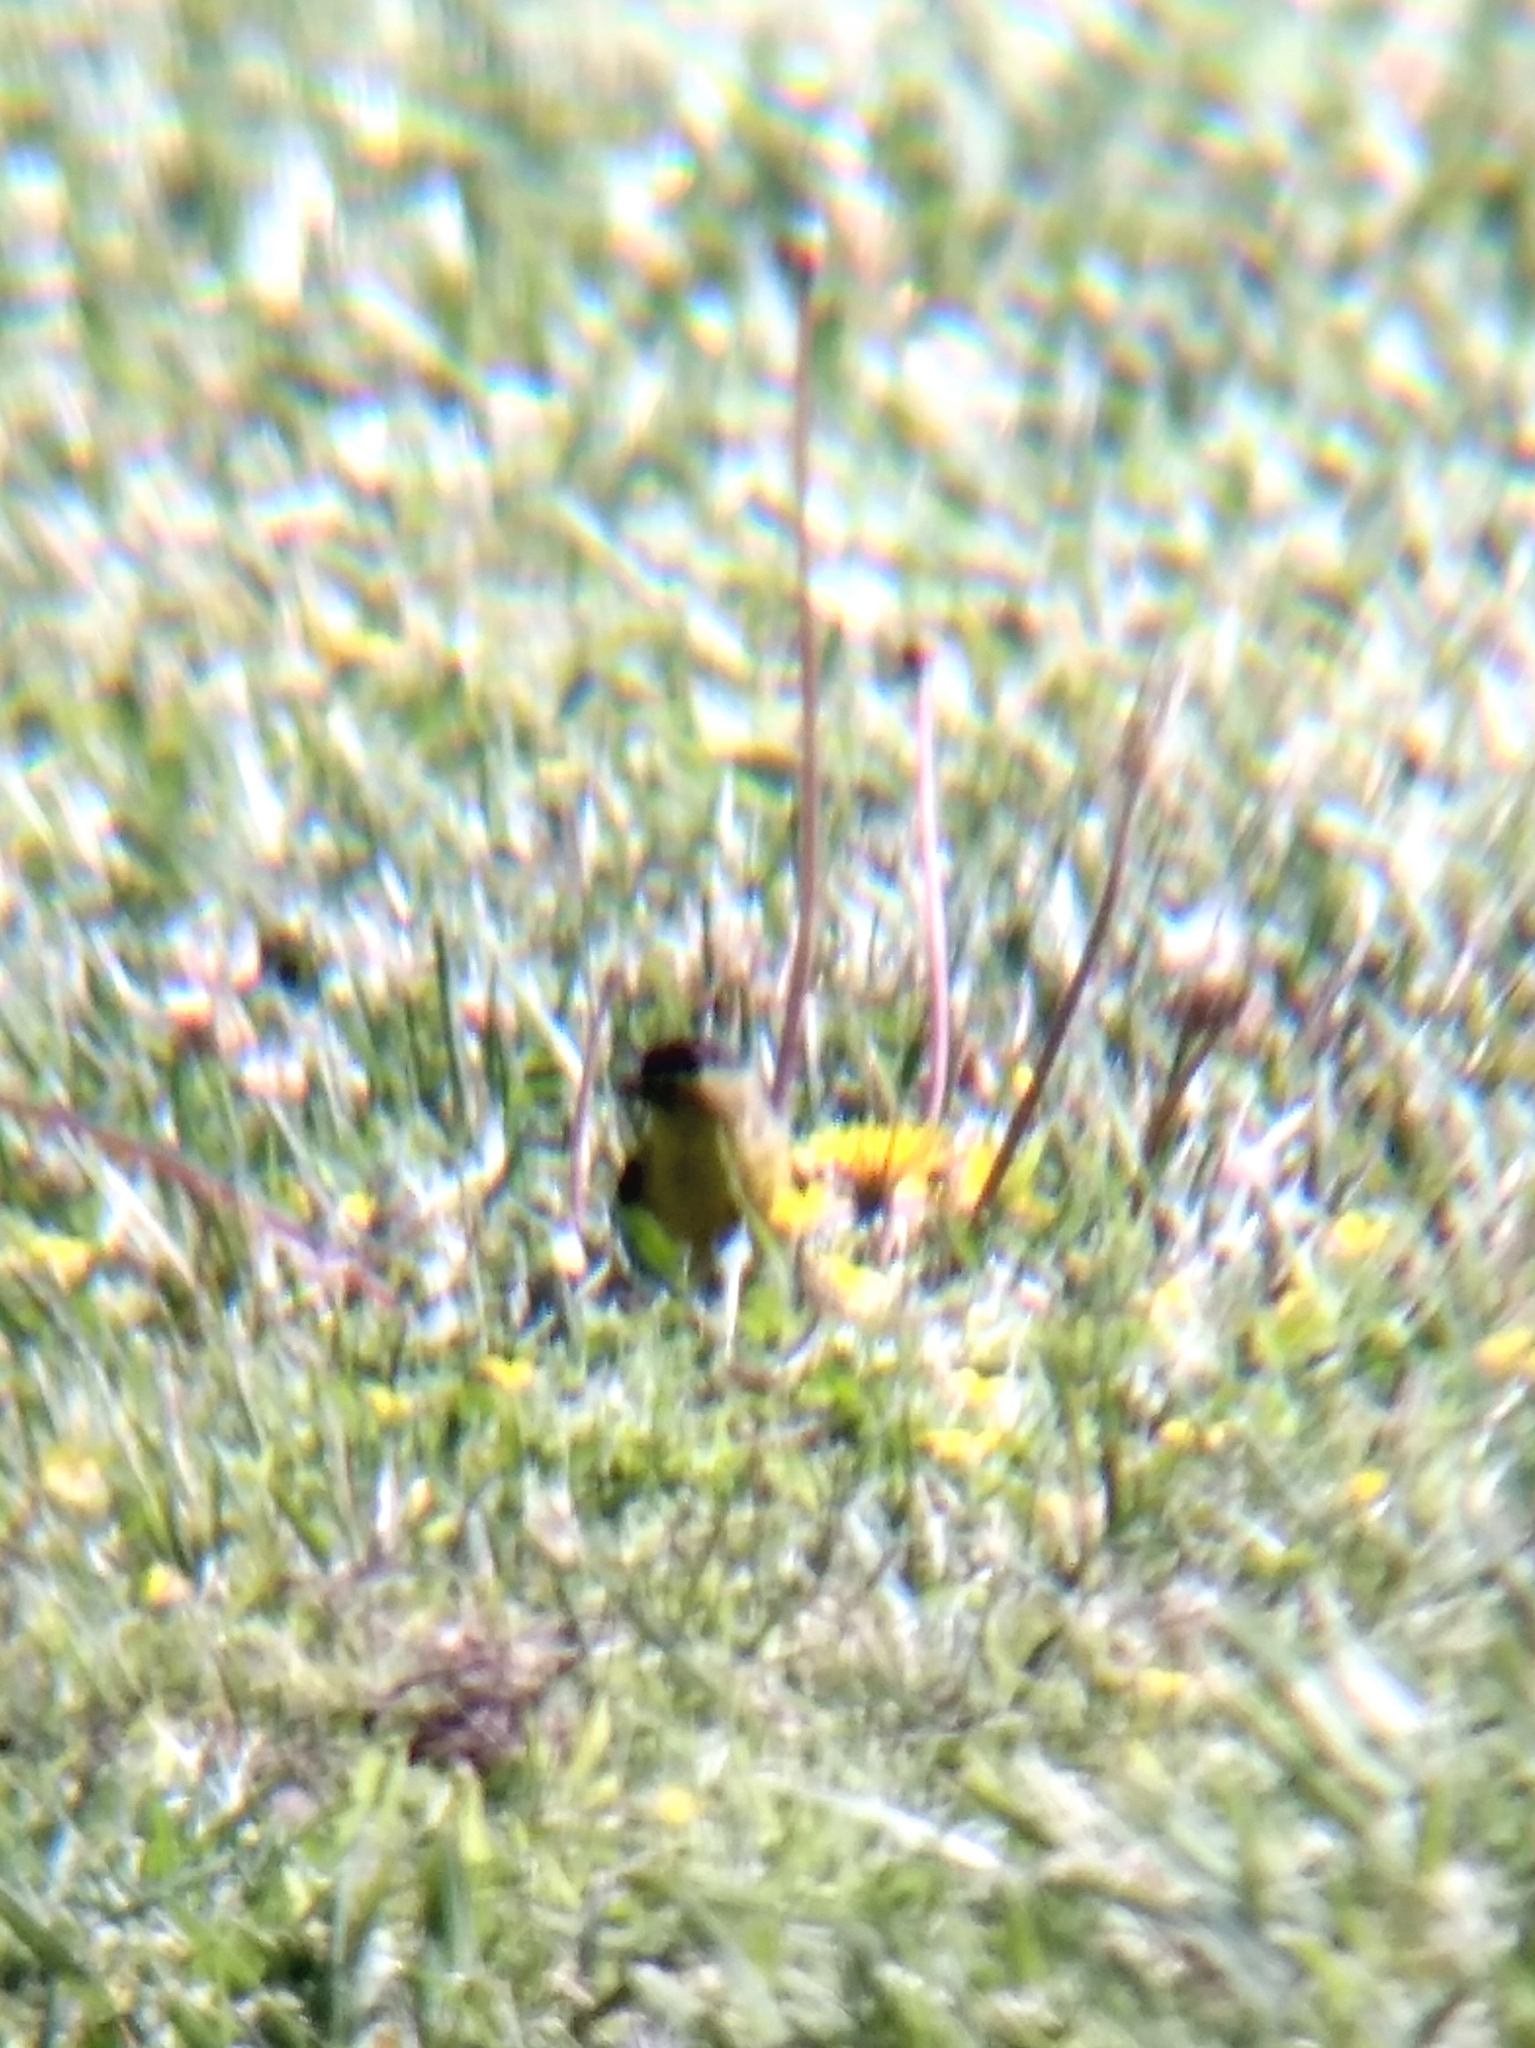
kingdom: Animalia
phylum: Chordata
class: Aves
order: Passeriformes
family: Fringillidae
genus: Spinus
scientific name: Spinus lawrencei
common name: Lawrence's goldfinch
